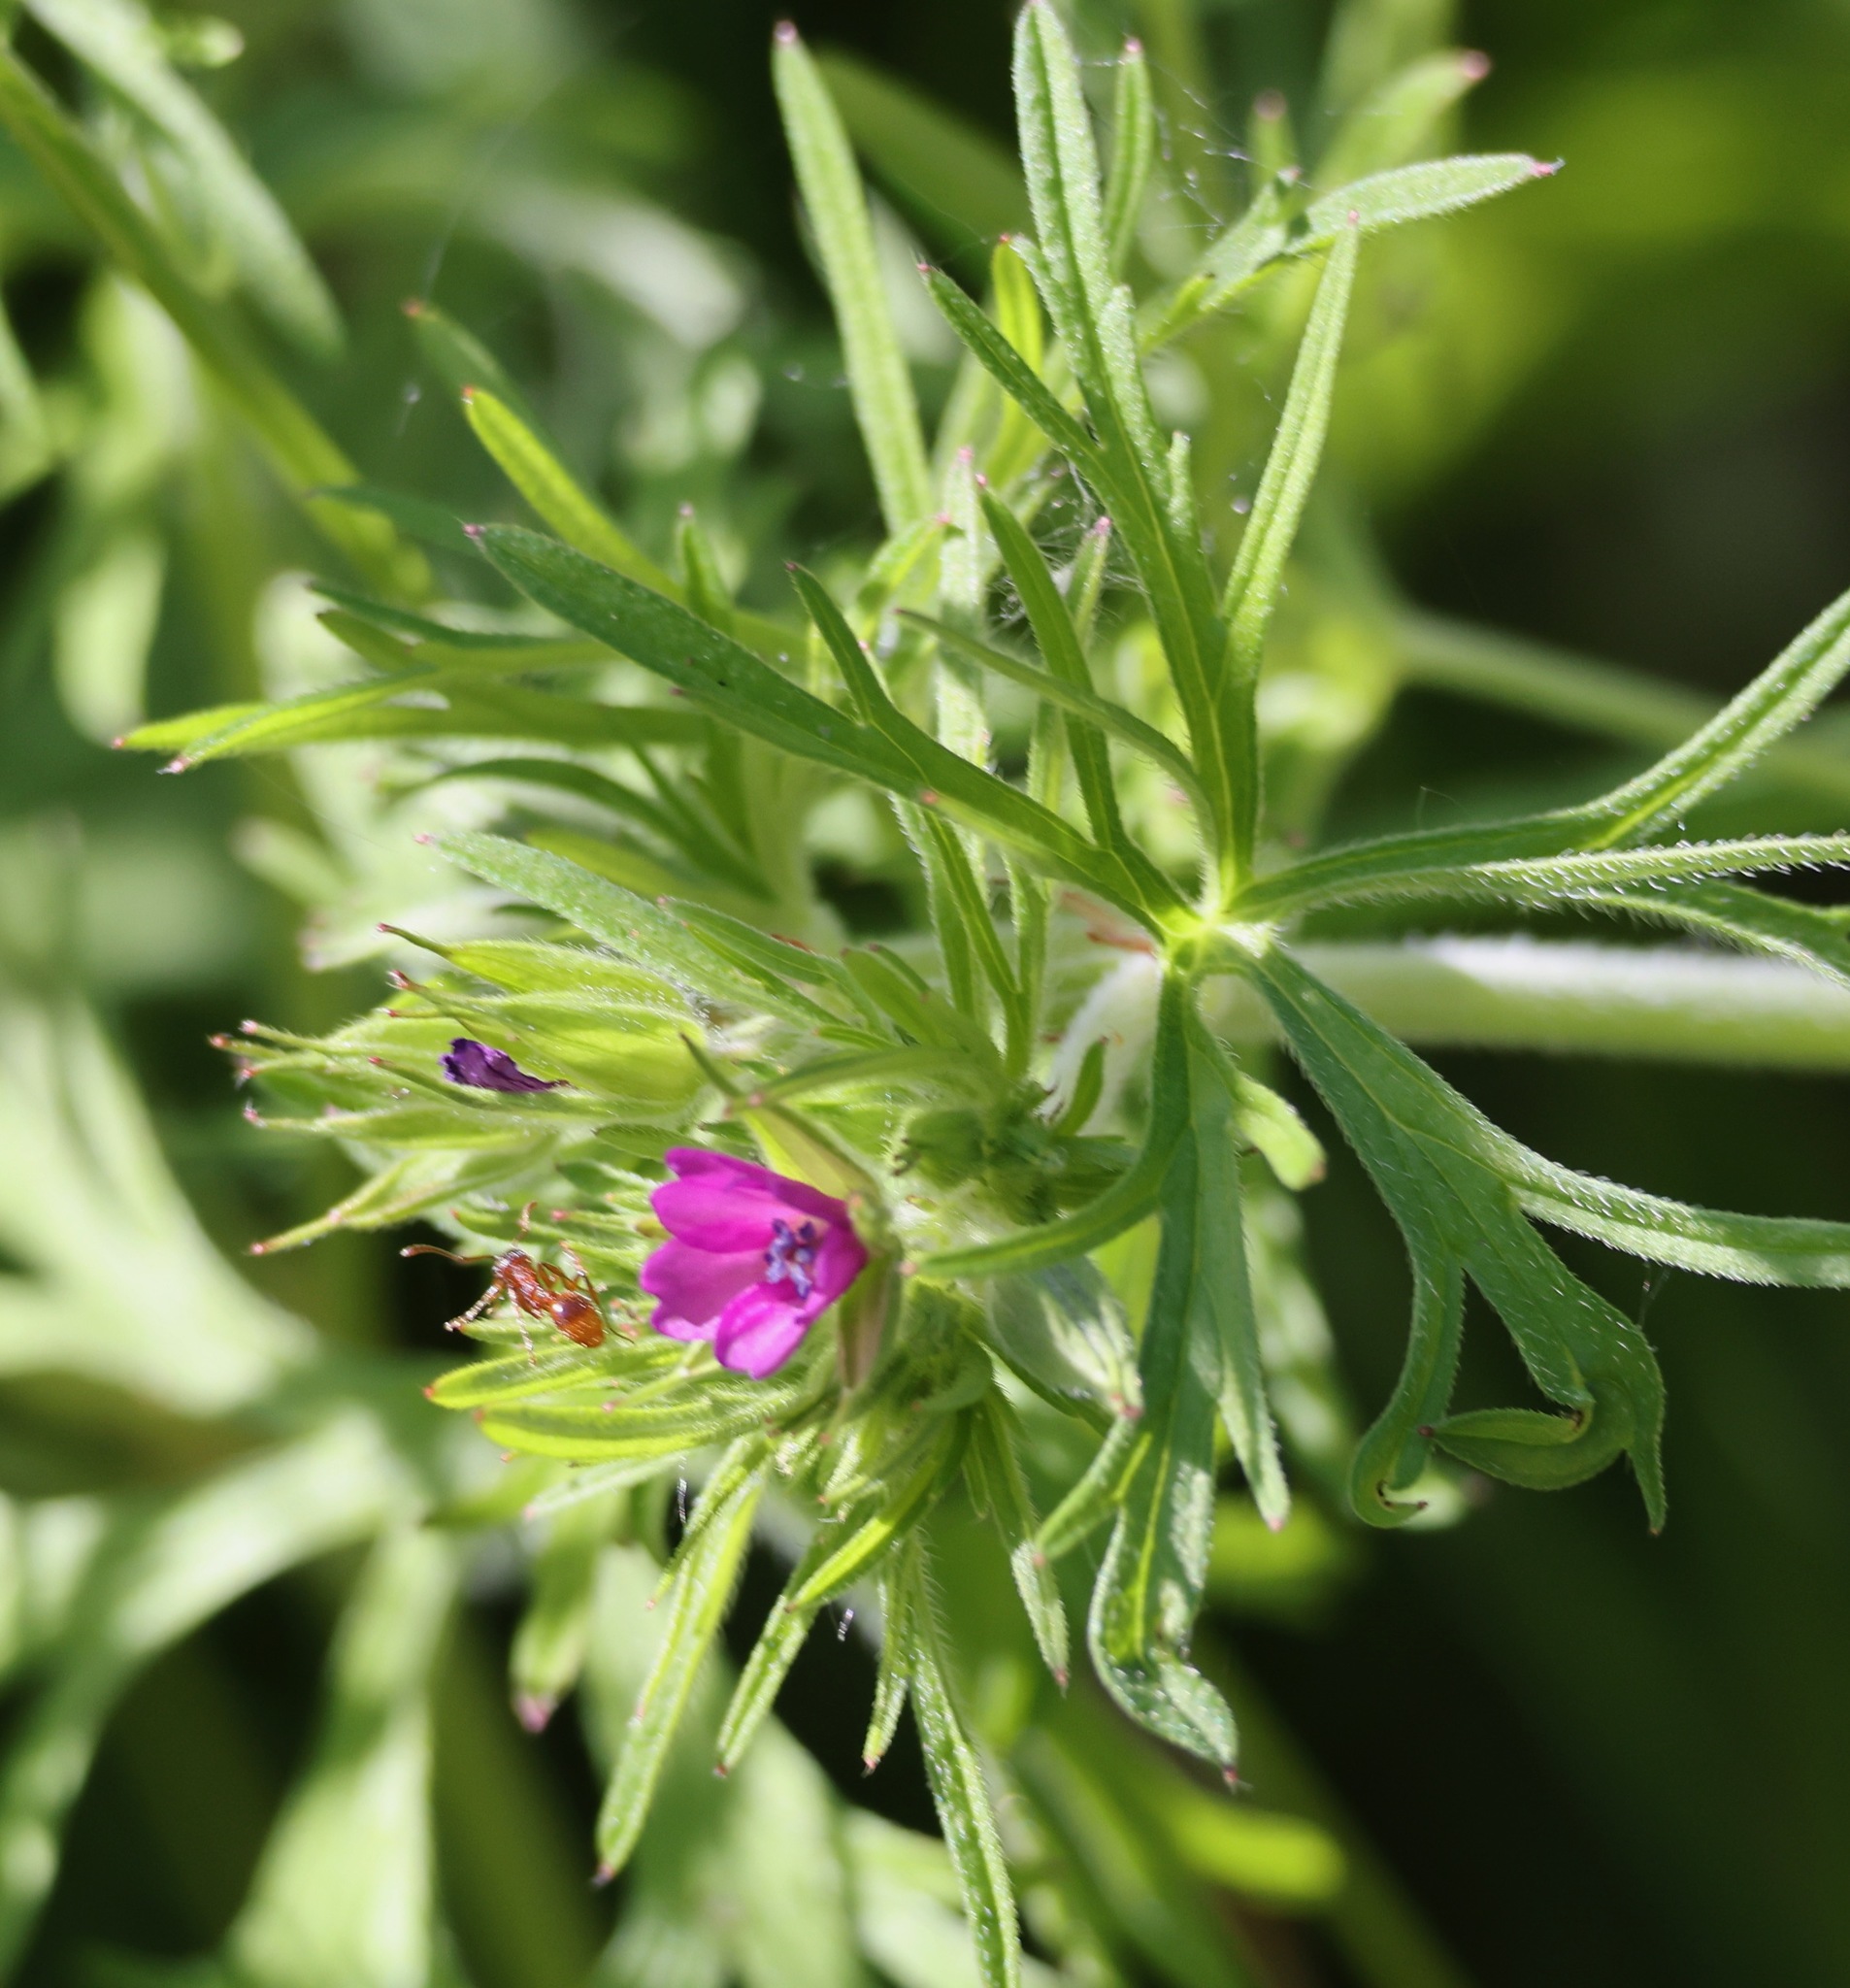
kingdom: Plantae
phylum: Tracheophyta
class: Magnoliopsida
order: Geraniales
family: Geraniaceae
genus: Geranium
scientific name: Geranium dissectum
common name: Cut-leaved crane's-bill
